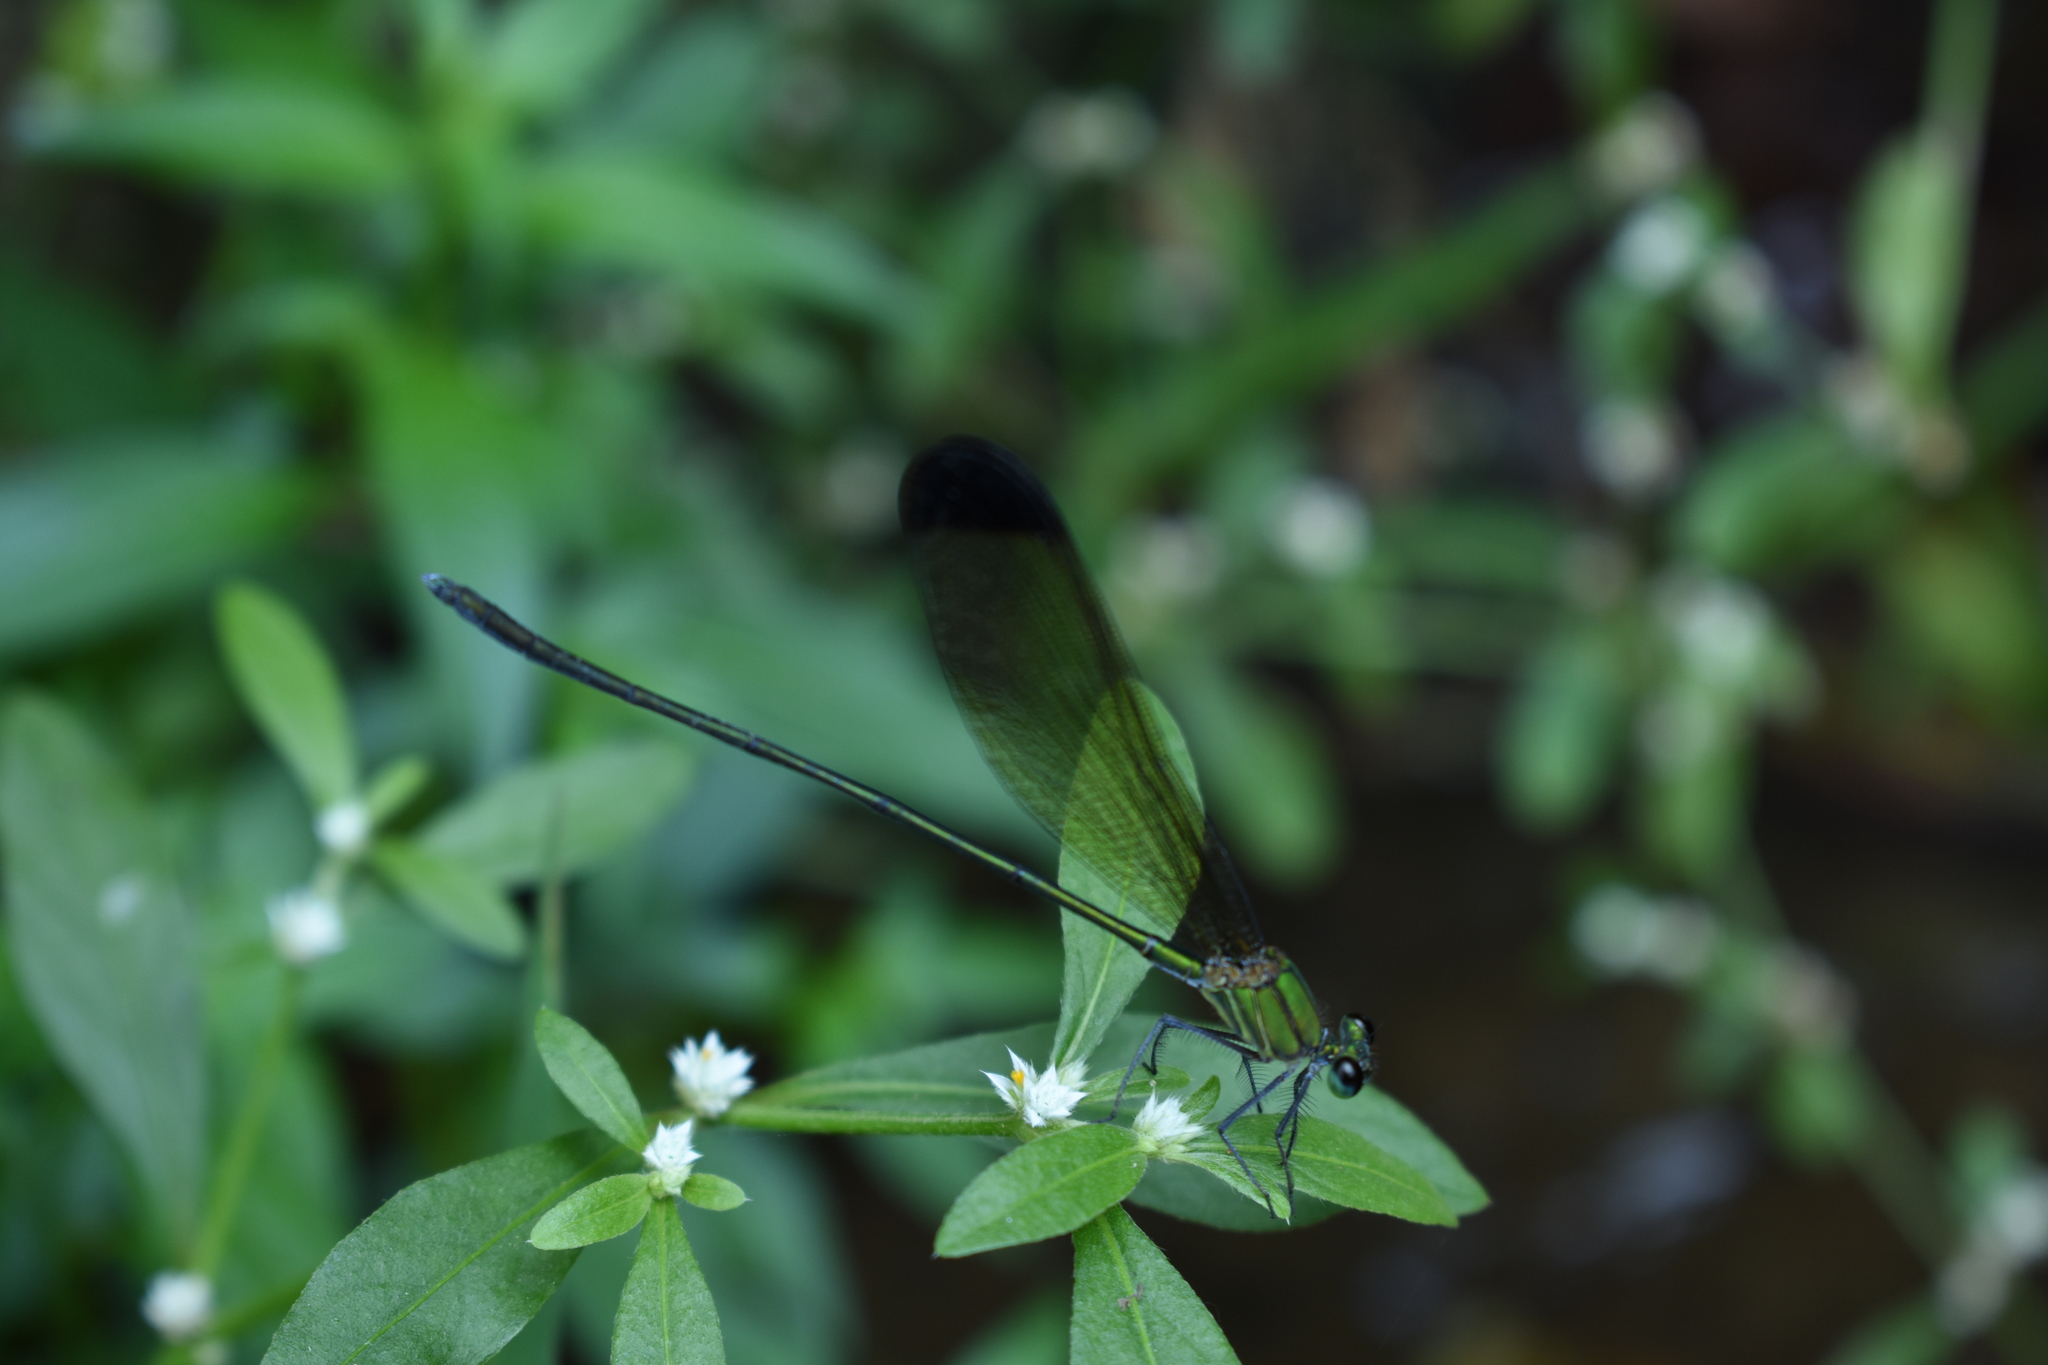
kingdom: Animalia
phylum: Arthropoda
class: Insecta
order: Odonata
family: Calopterygidae
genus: Vestalis
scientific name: Vestalis apicalis
